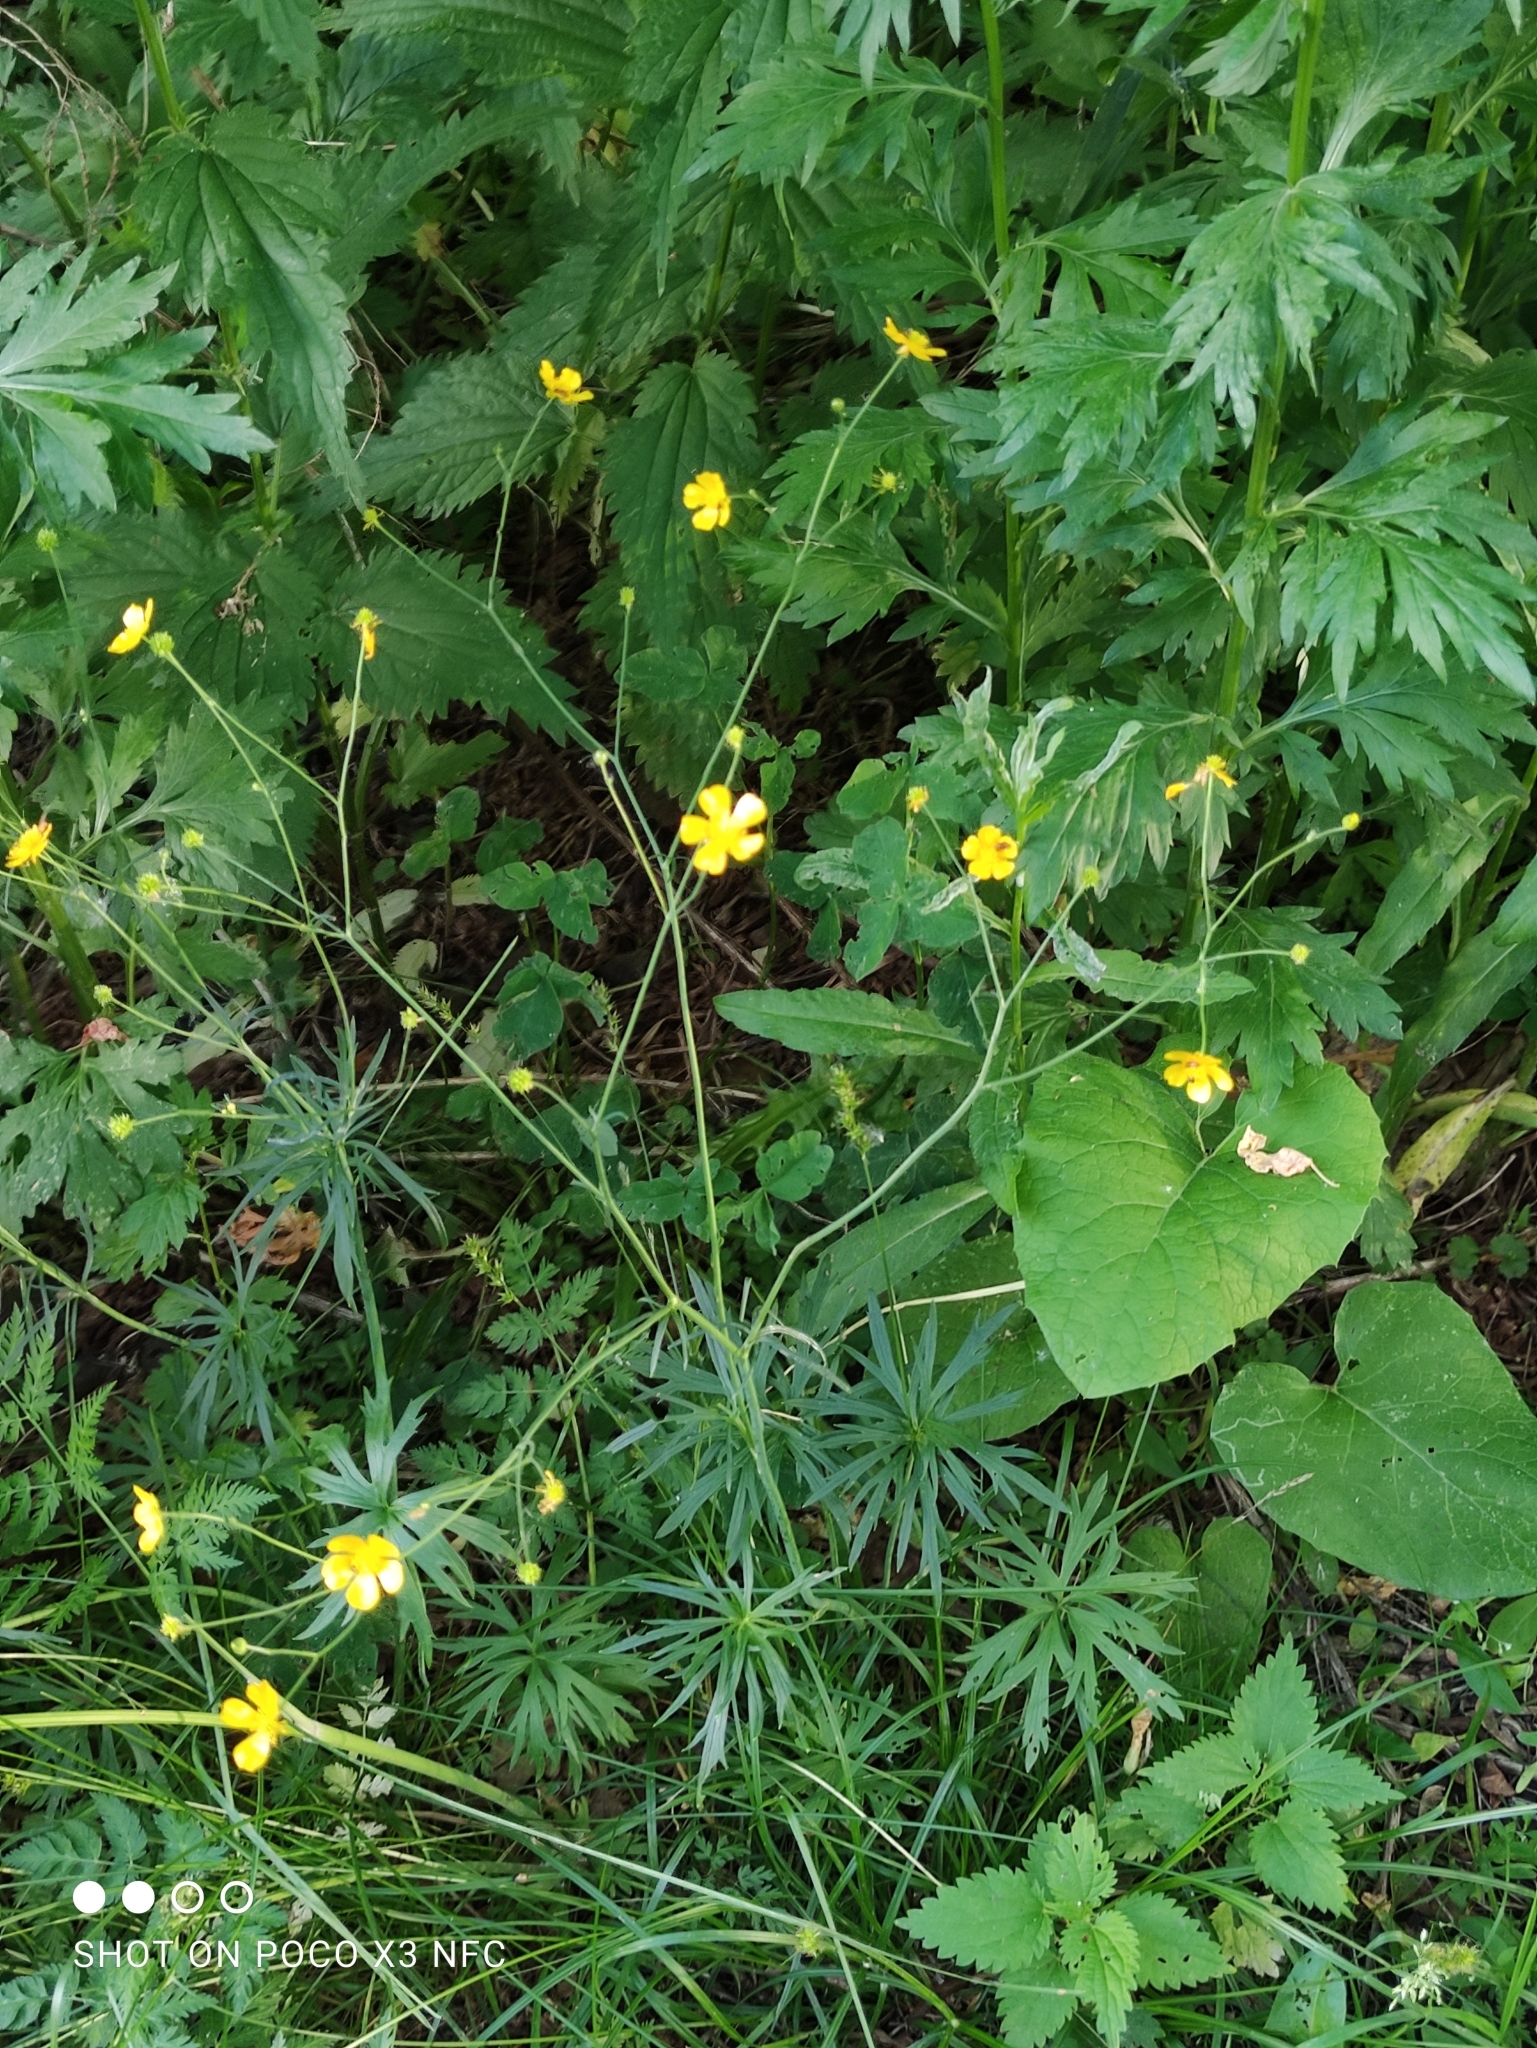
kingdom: Plantae
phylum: Tracheophyta
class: Magnoliopsida
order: Ranunculales
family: Ranunculaceae
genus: Ranunculus
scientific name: Ranunculus acris
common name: Meadow buttercup
